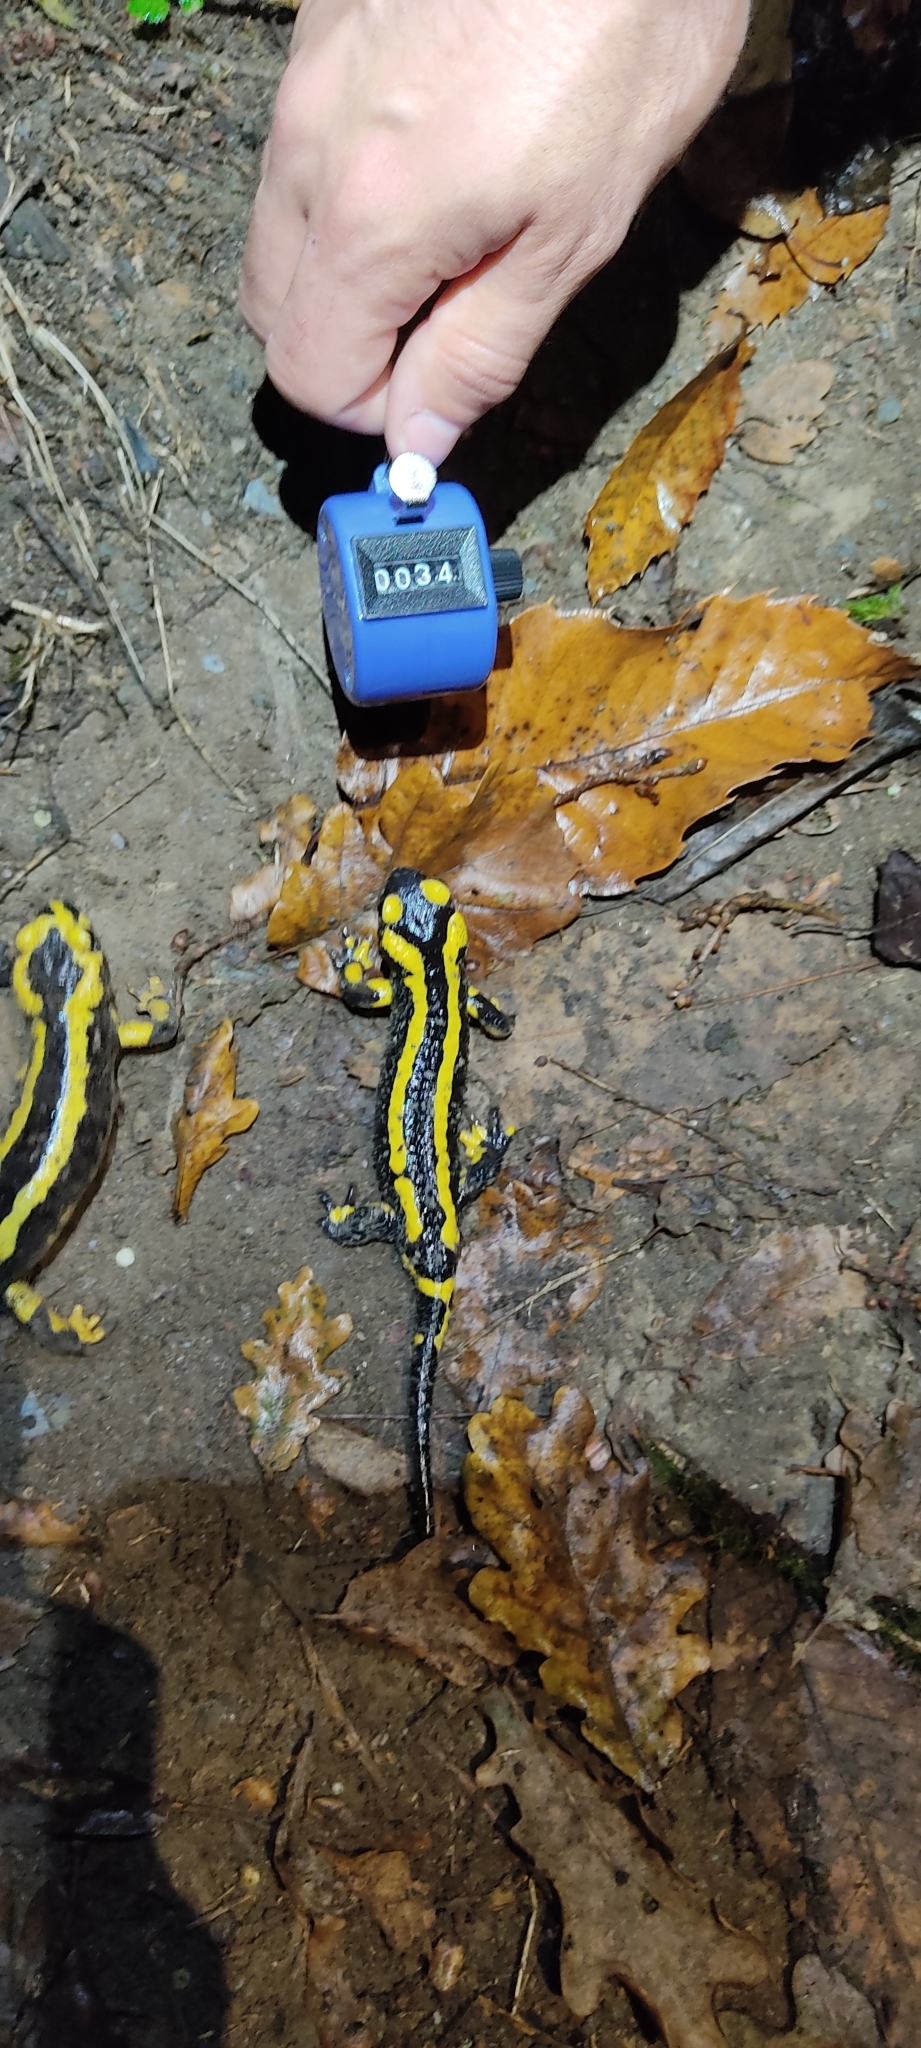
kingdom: Animalia
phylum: Chordata
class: Amphibia
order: Caudata
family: Salamandridae
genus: Salamandra
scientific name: Salamandra salamandra
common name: Fire salamander
